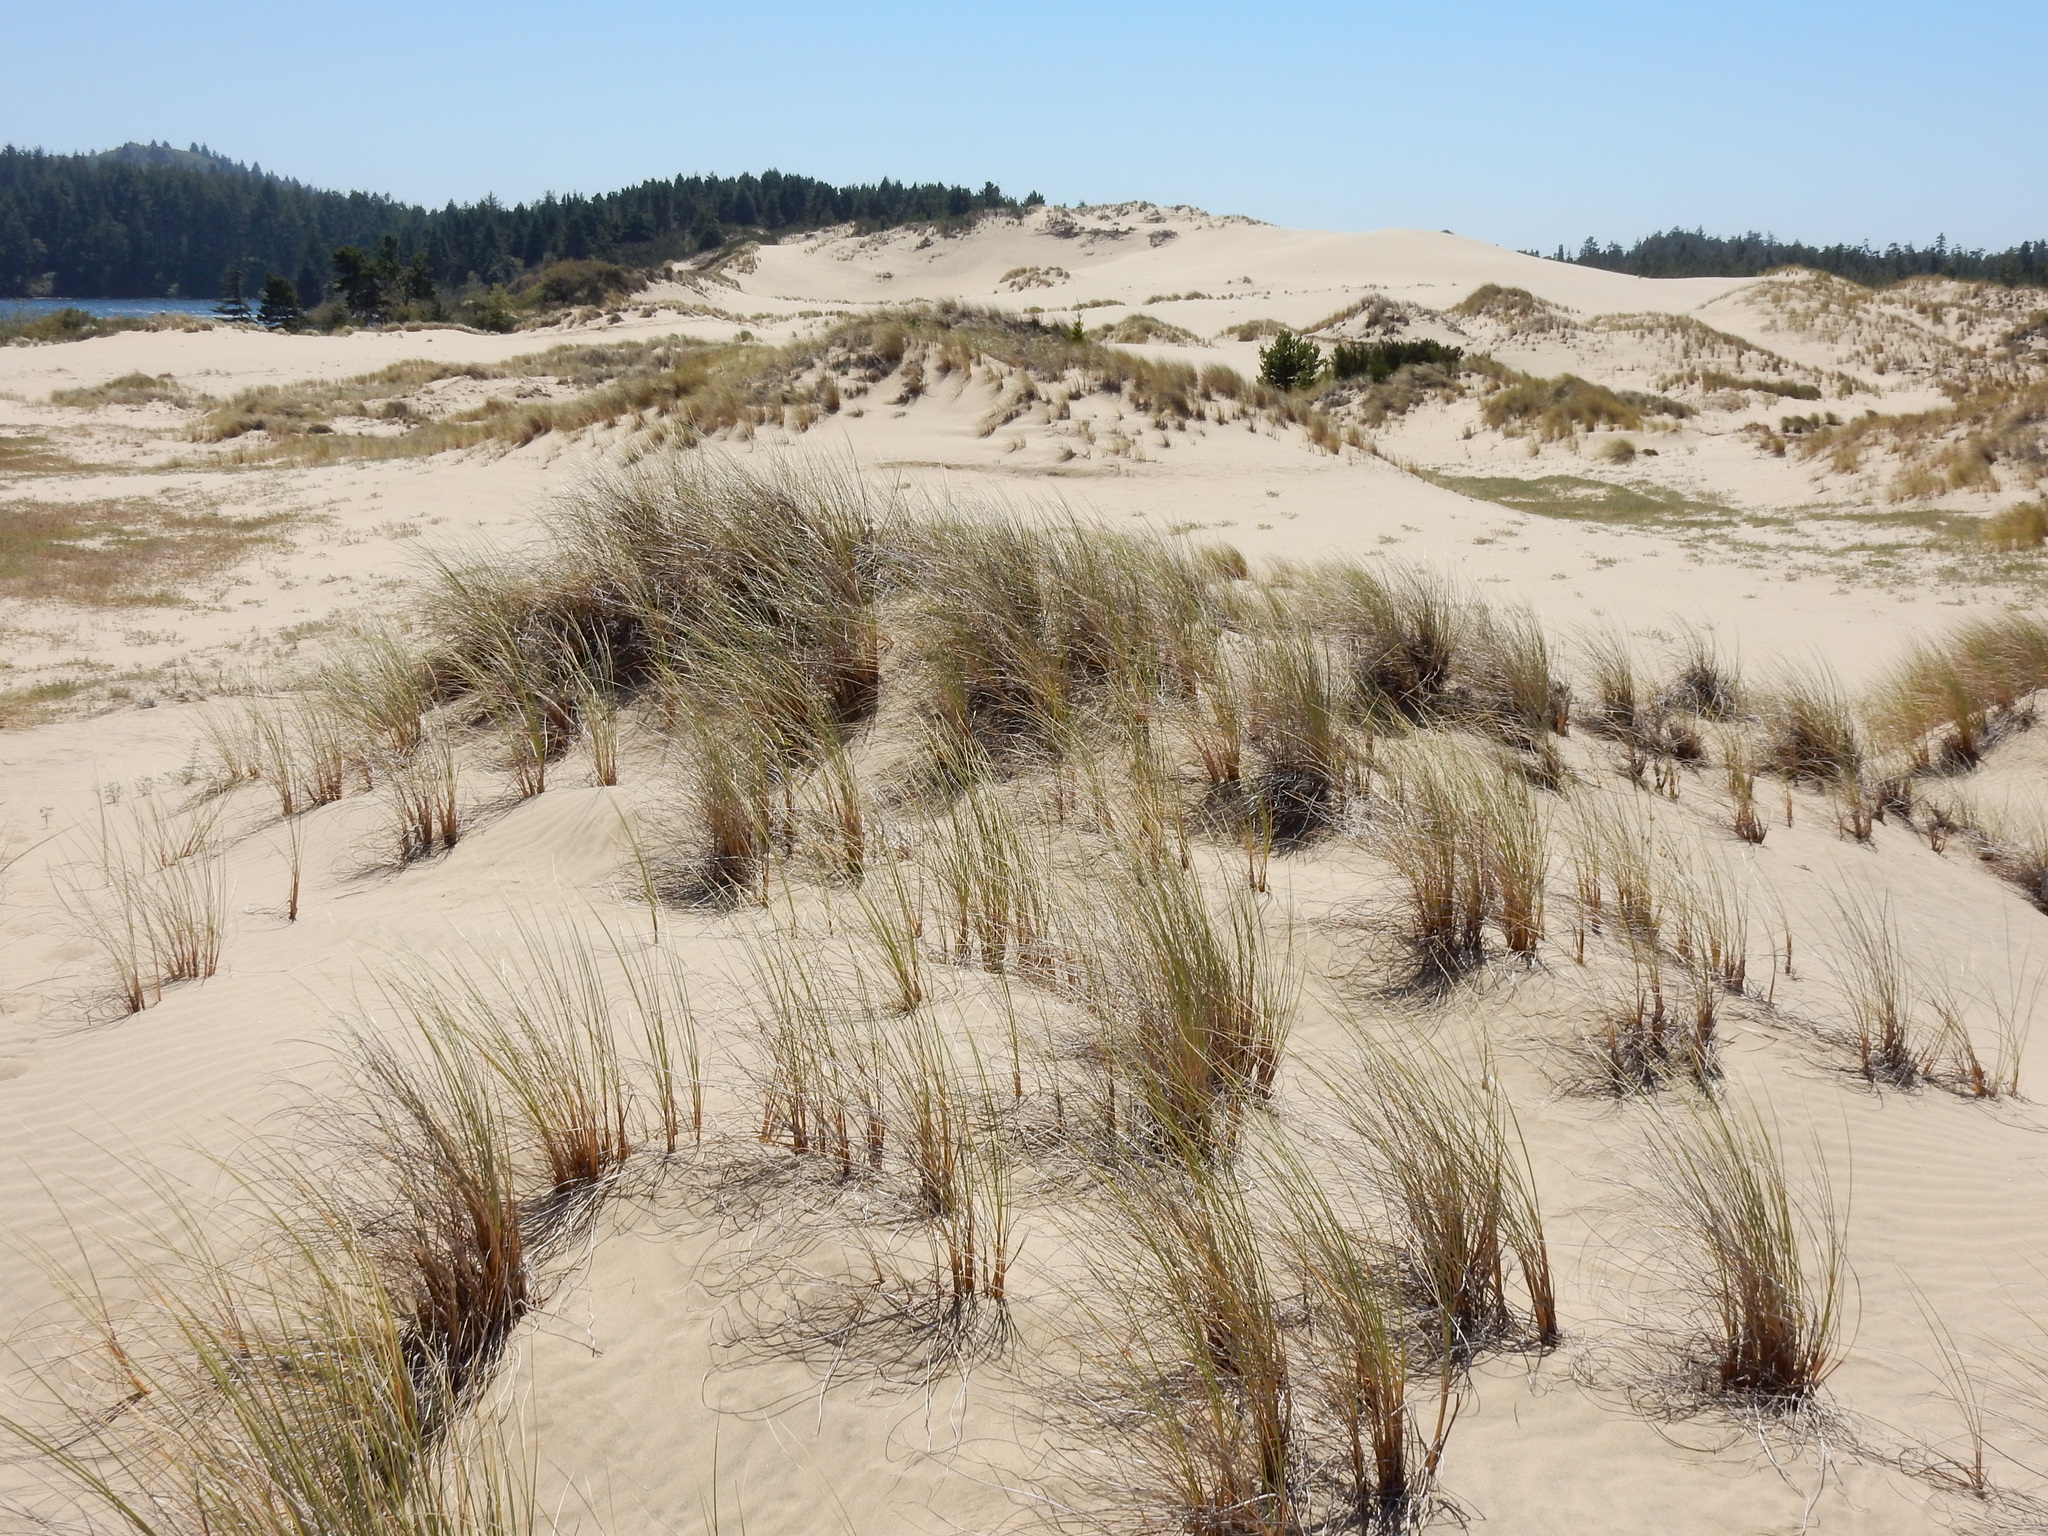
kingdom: Plantae
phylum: Tracheophyta
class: Liliopsida
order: Poales
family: Poaceae
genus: Calamagrostis
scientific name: Calamagrostis arenaria
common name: European beachgrass
